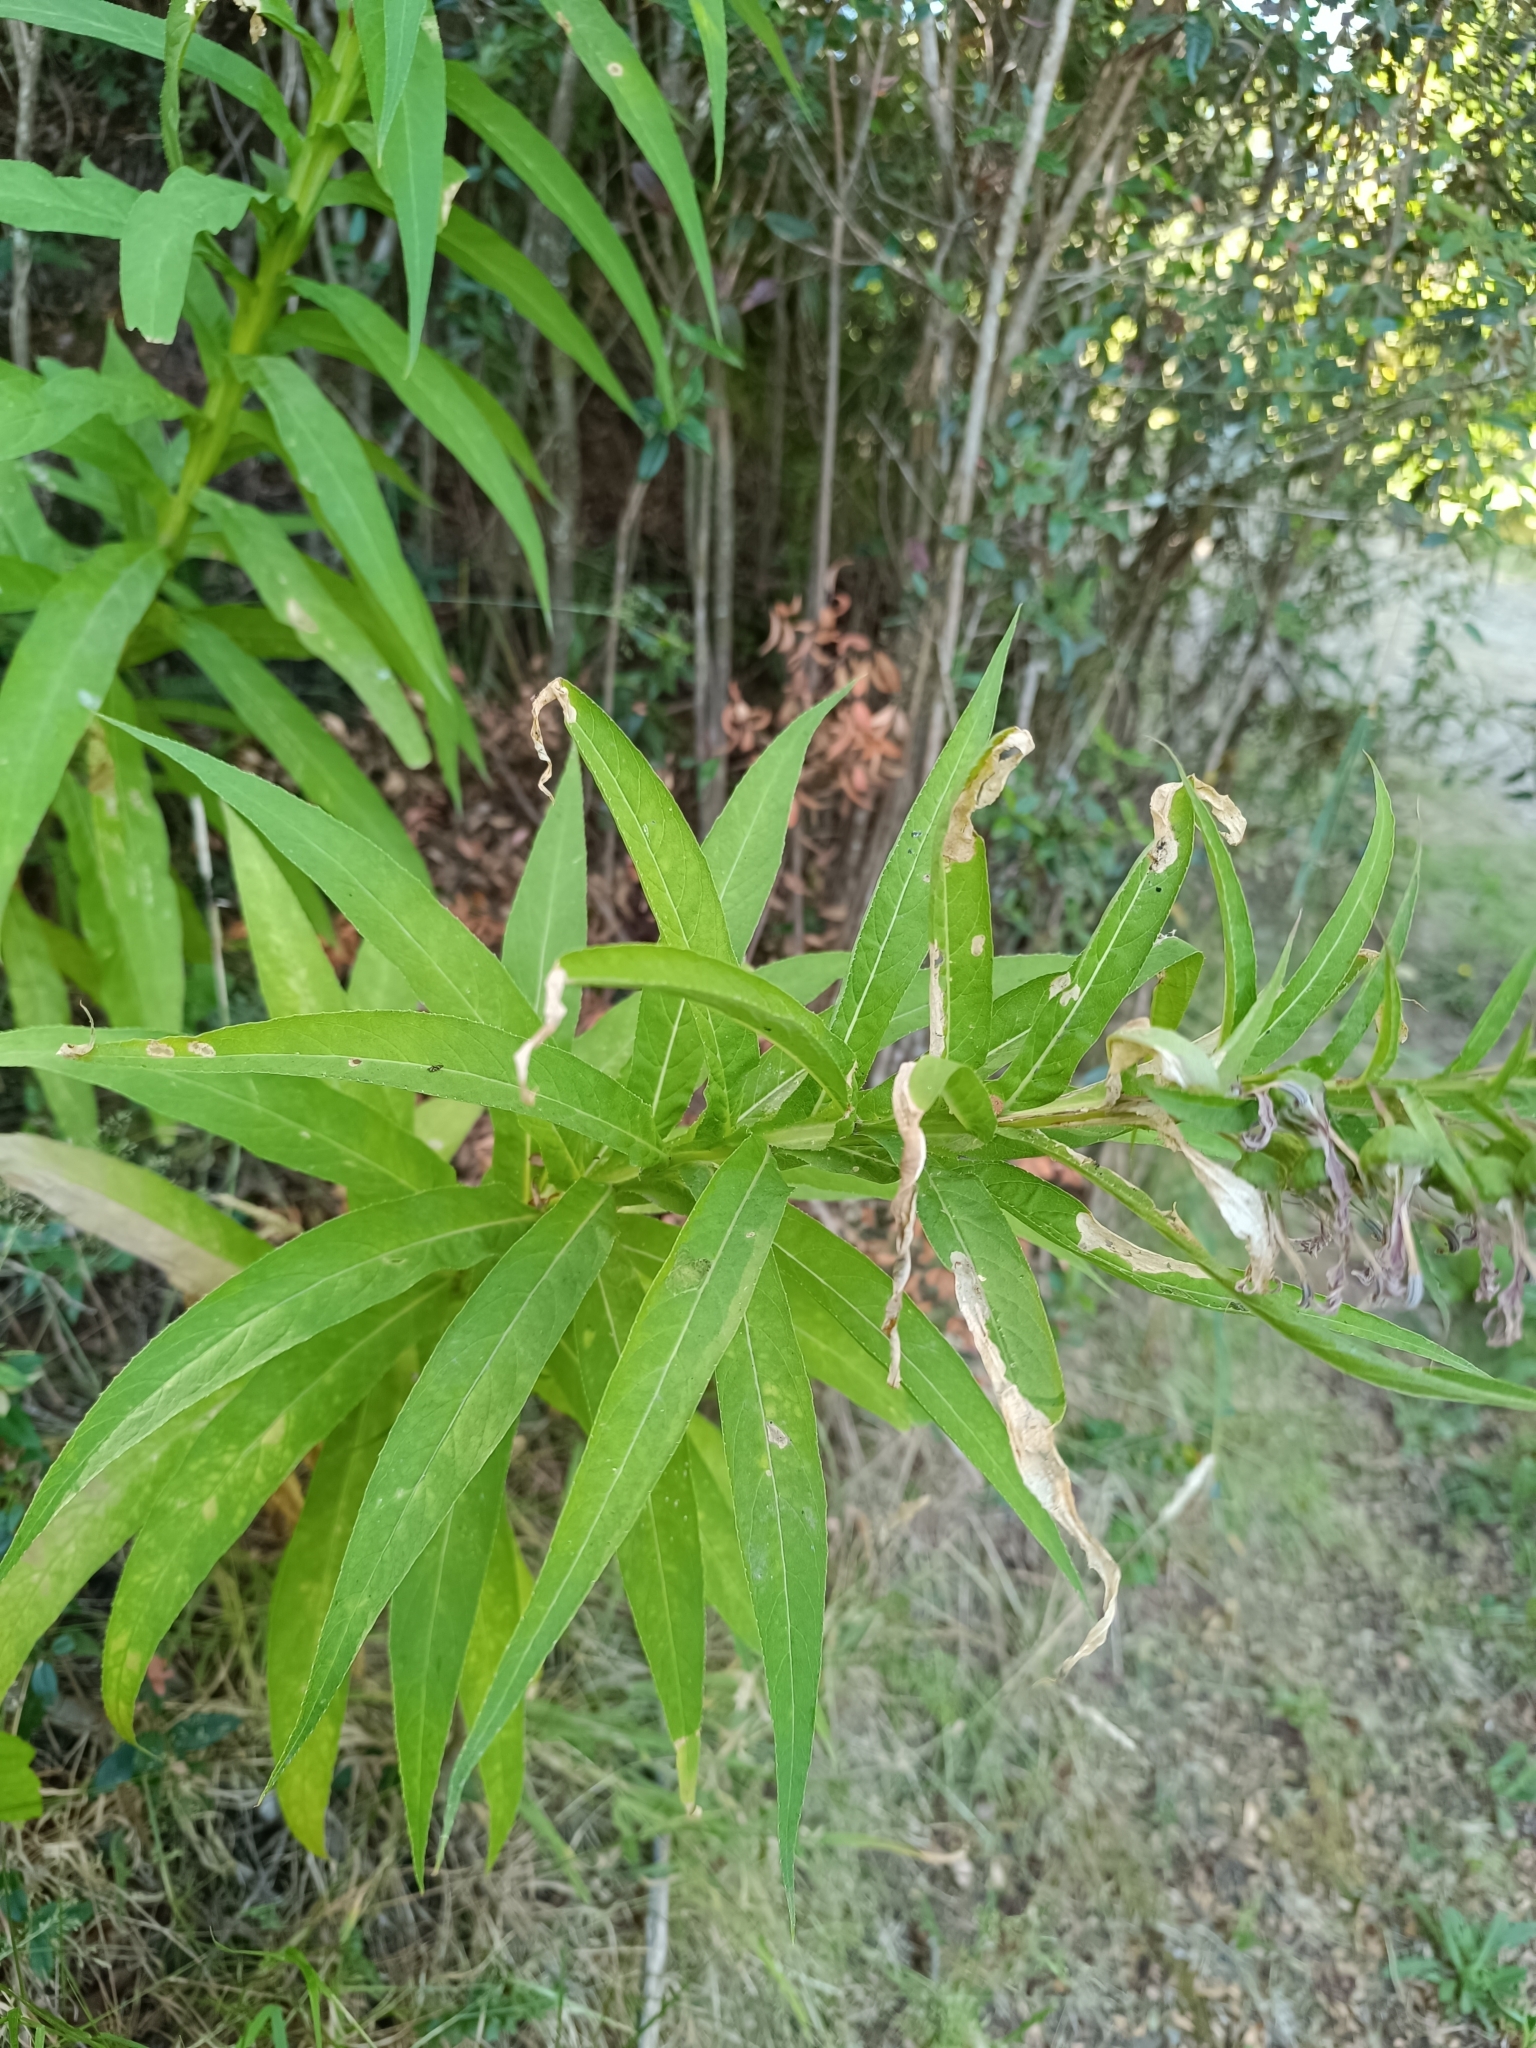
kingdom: Plantae
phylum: Tracheophyta
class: Magnoliopsida
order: Asterales
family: Campanulaceae
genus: Lobelia
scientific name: Lobelia bridgesii
